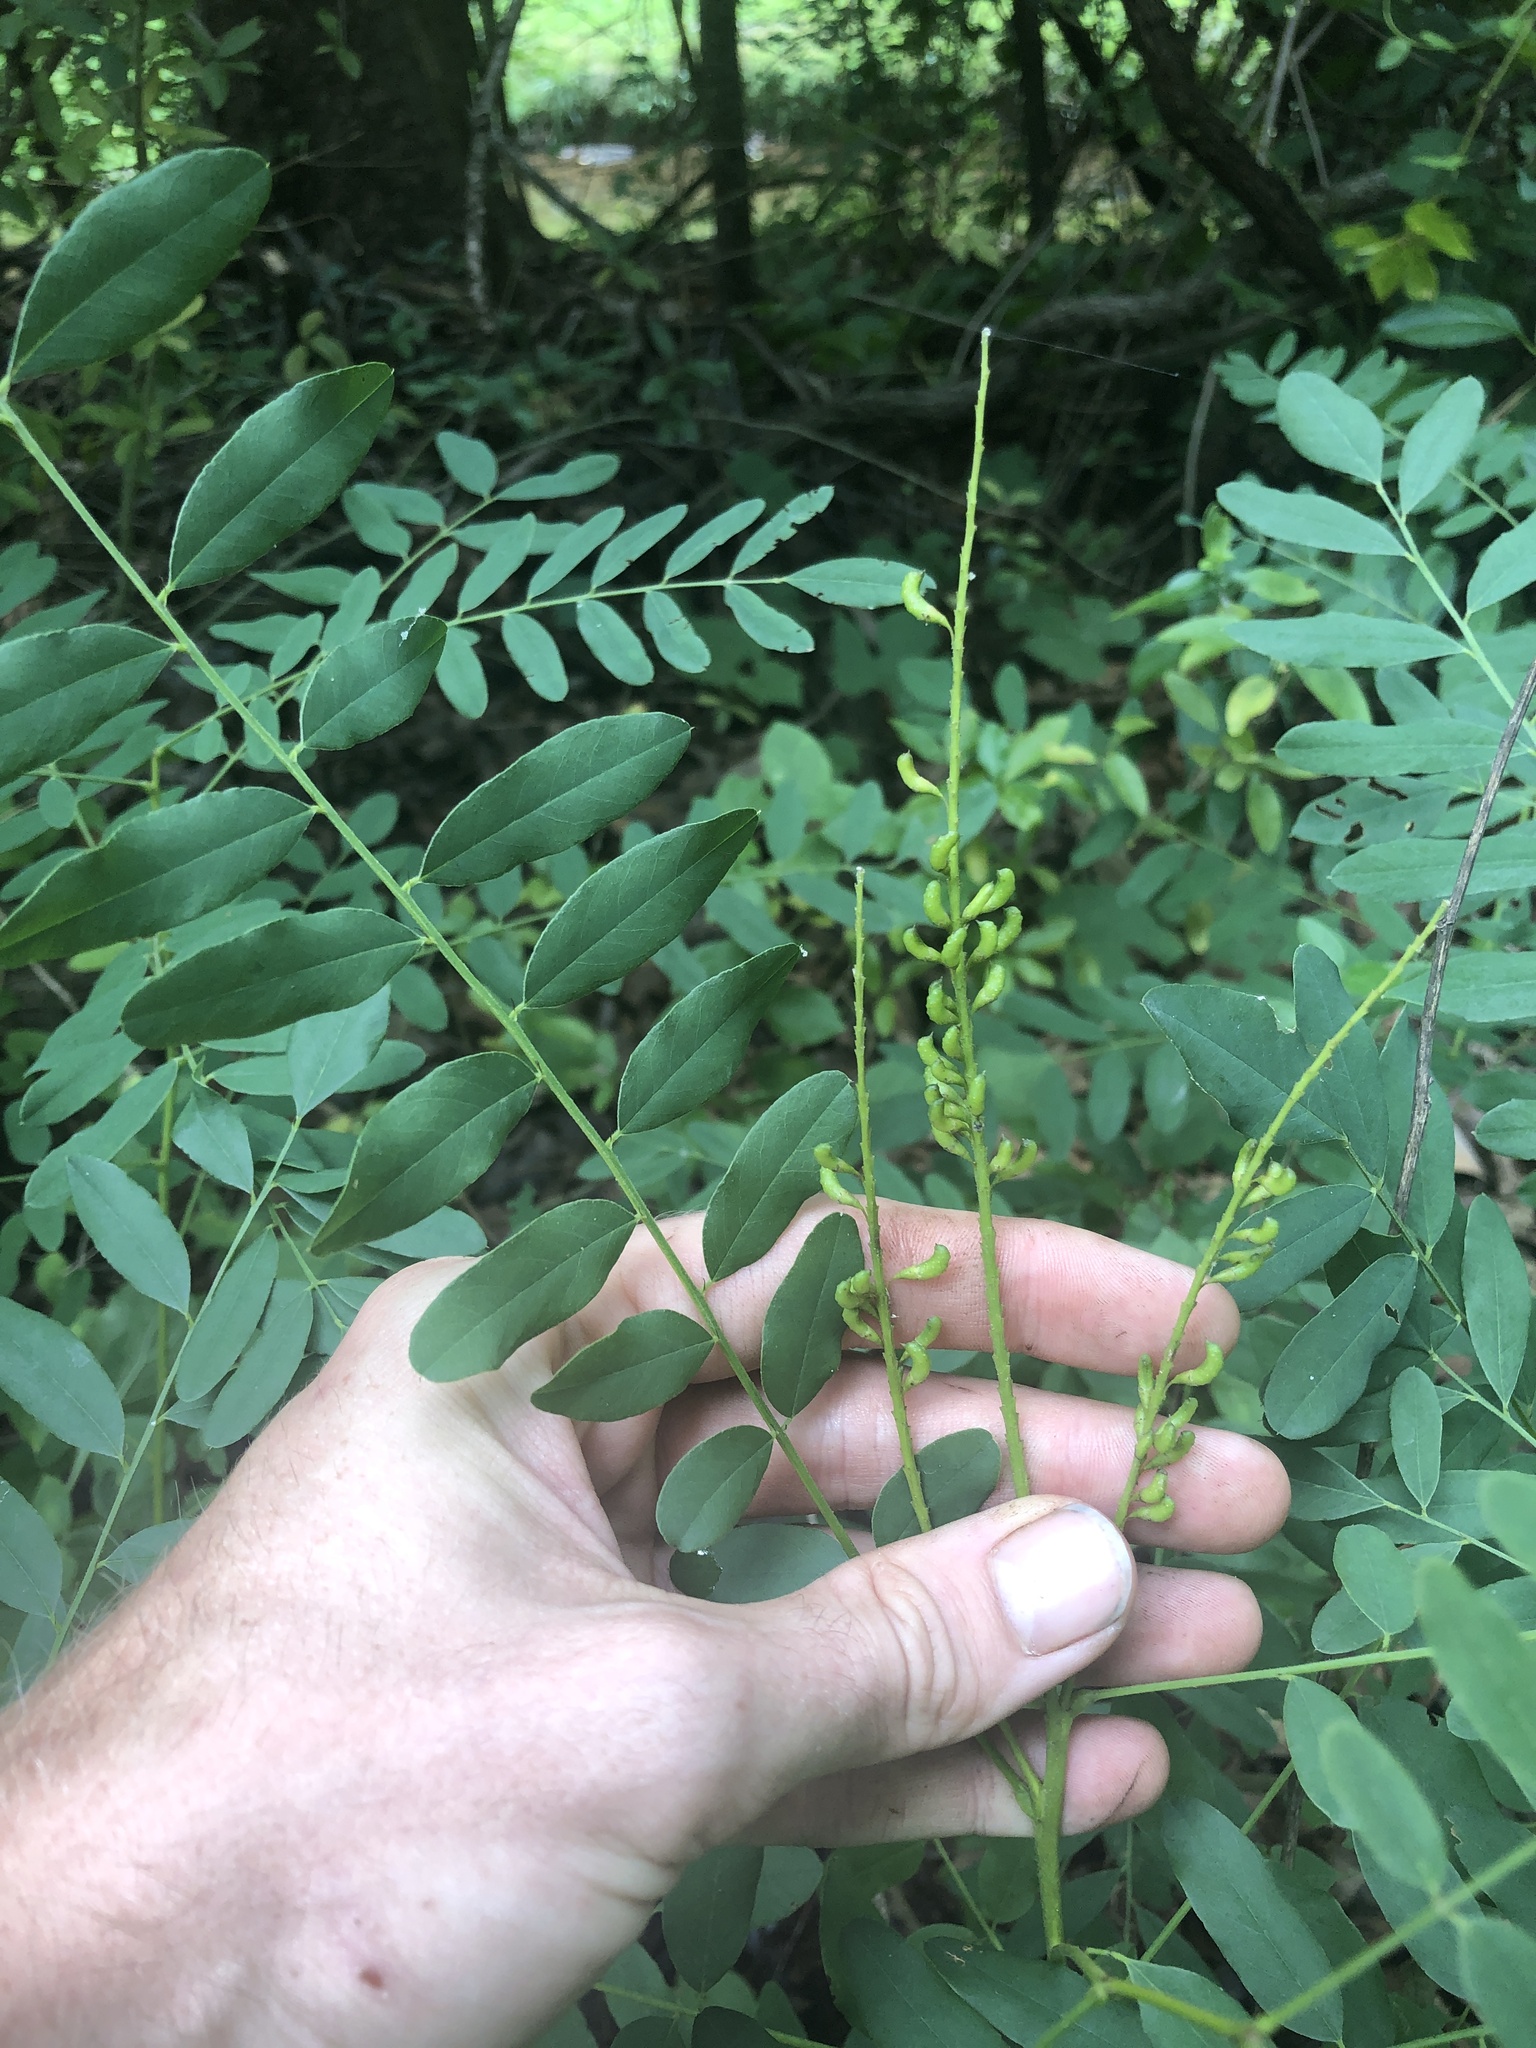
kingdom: Plantae
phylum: Tracheophyta
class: Magnoliopsida
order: Fabales
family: Fabaceae
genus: Amorpha
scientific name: Amorpha fruticosa
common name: False indigo
